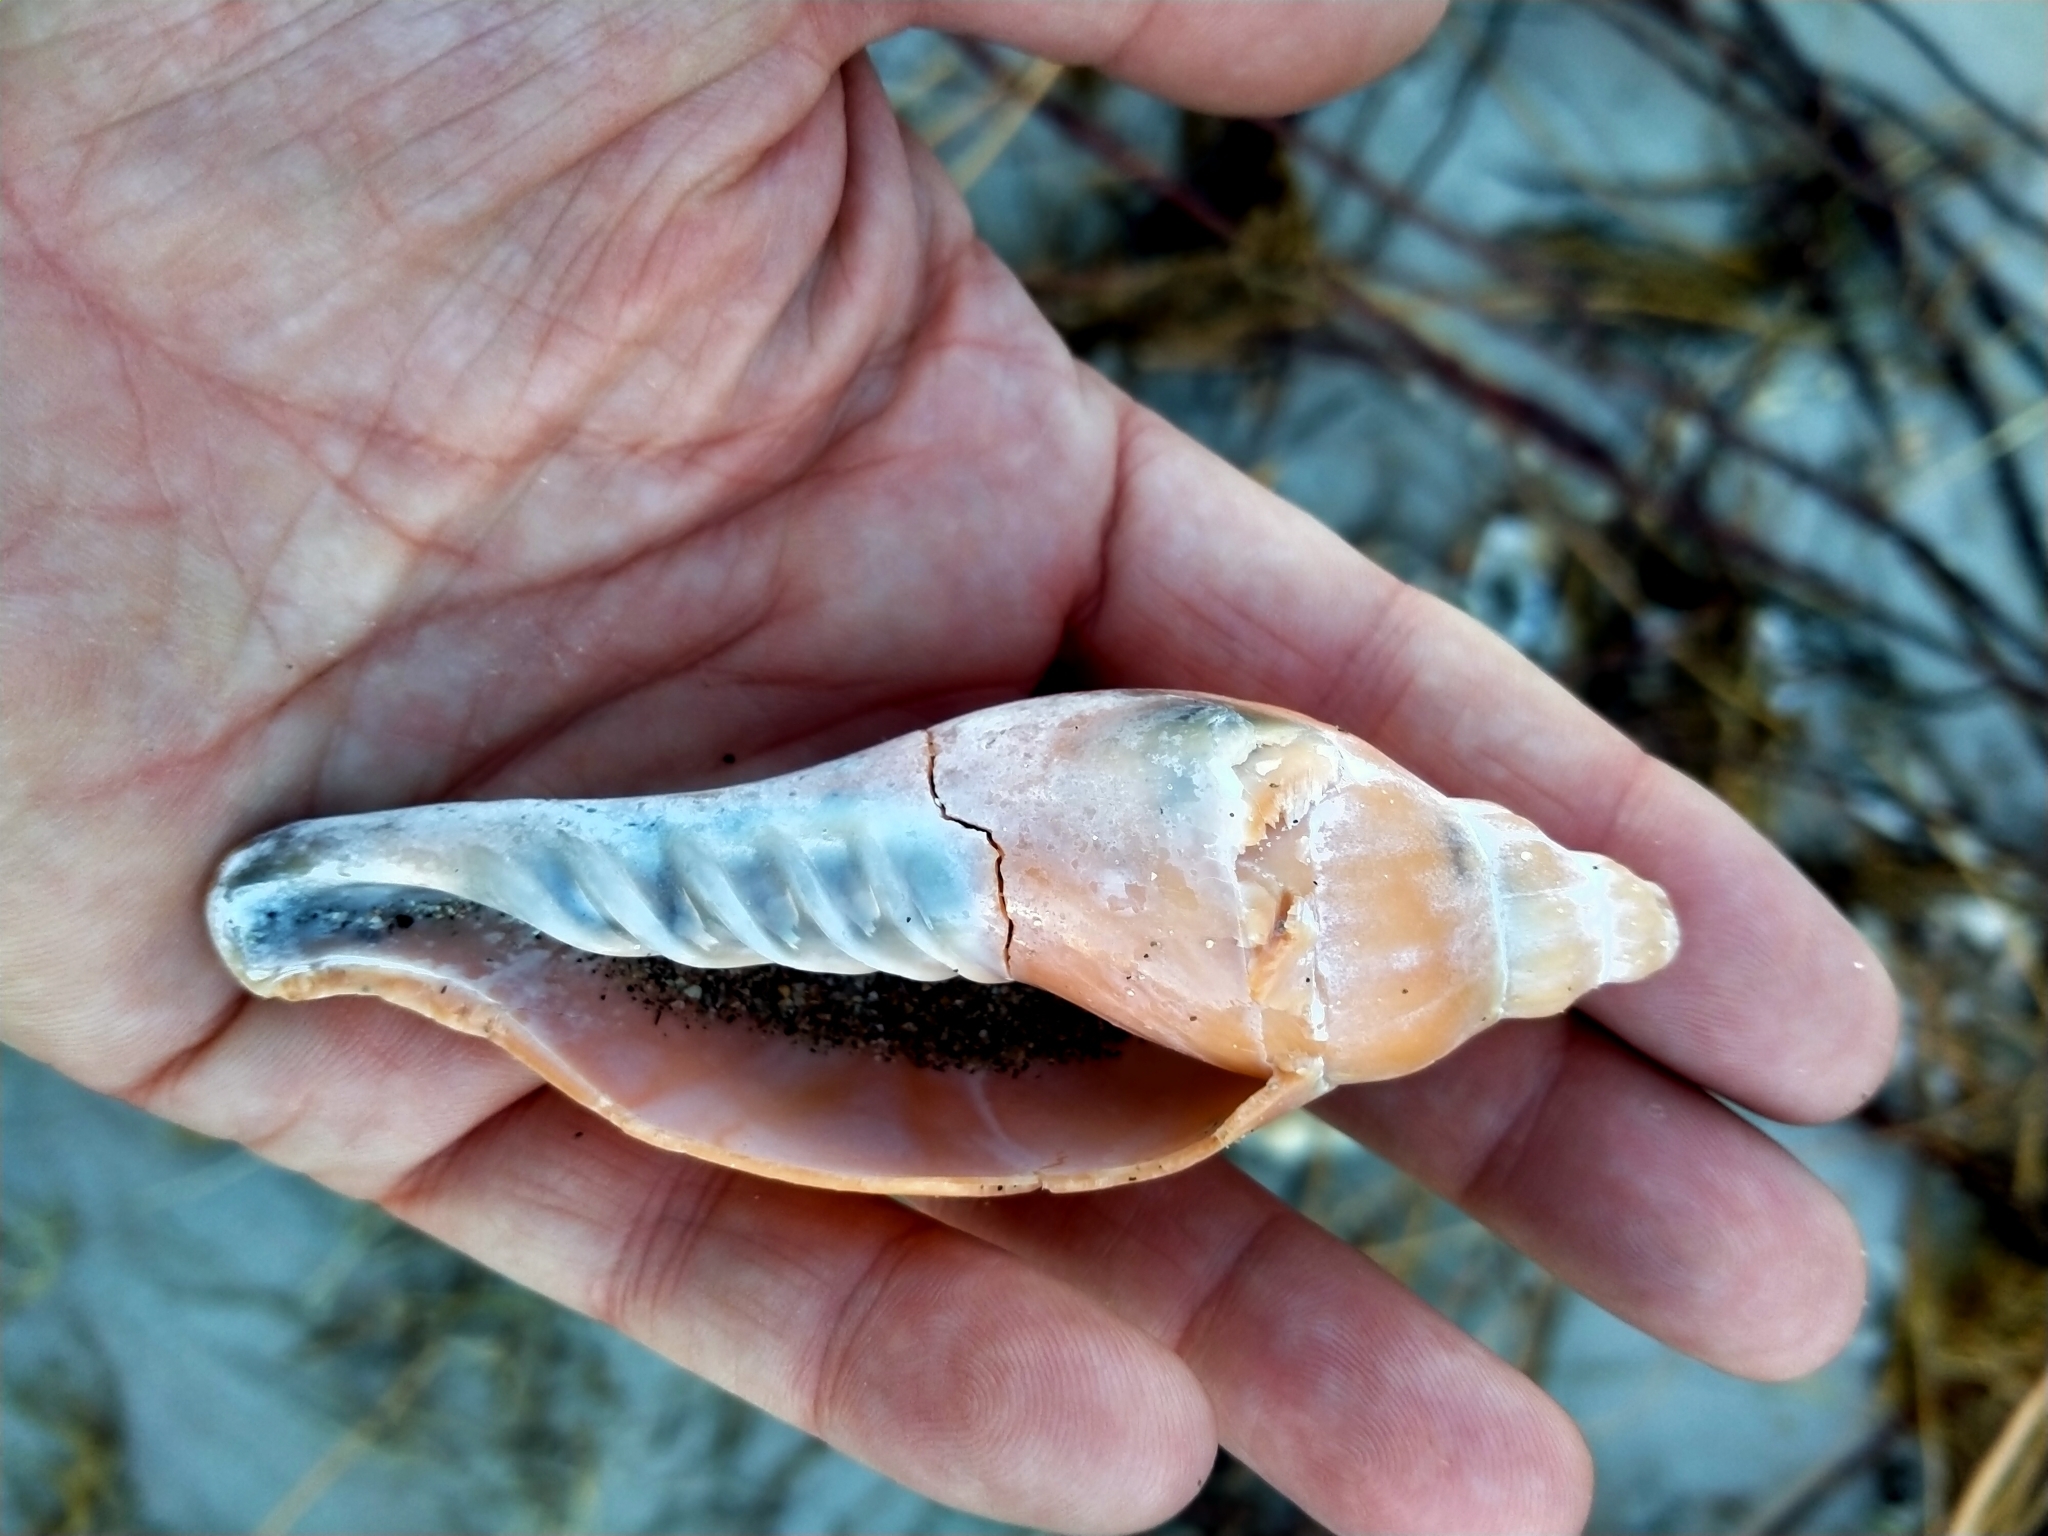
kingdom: Animalia
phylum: Mollusca
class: Gastropoda
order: Neogastropoda
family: Volutidae
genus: Alcithoe
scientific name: Alcithoe arabica
